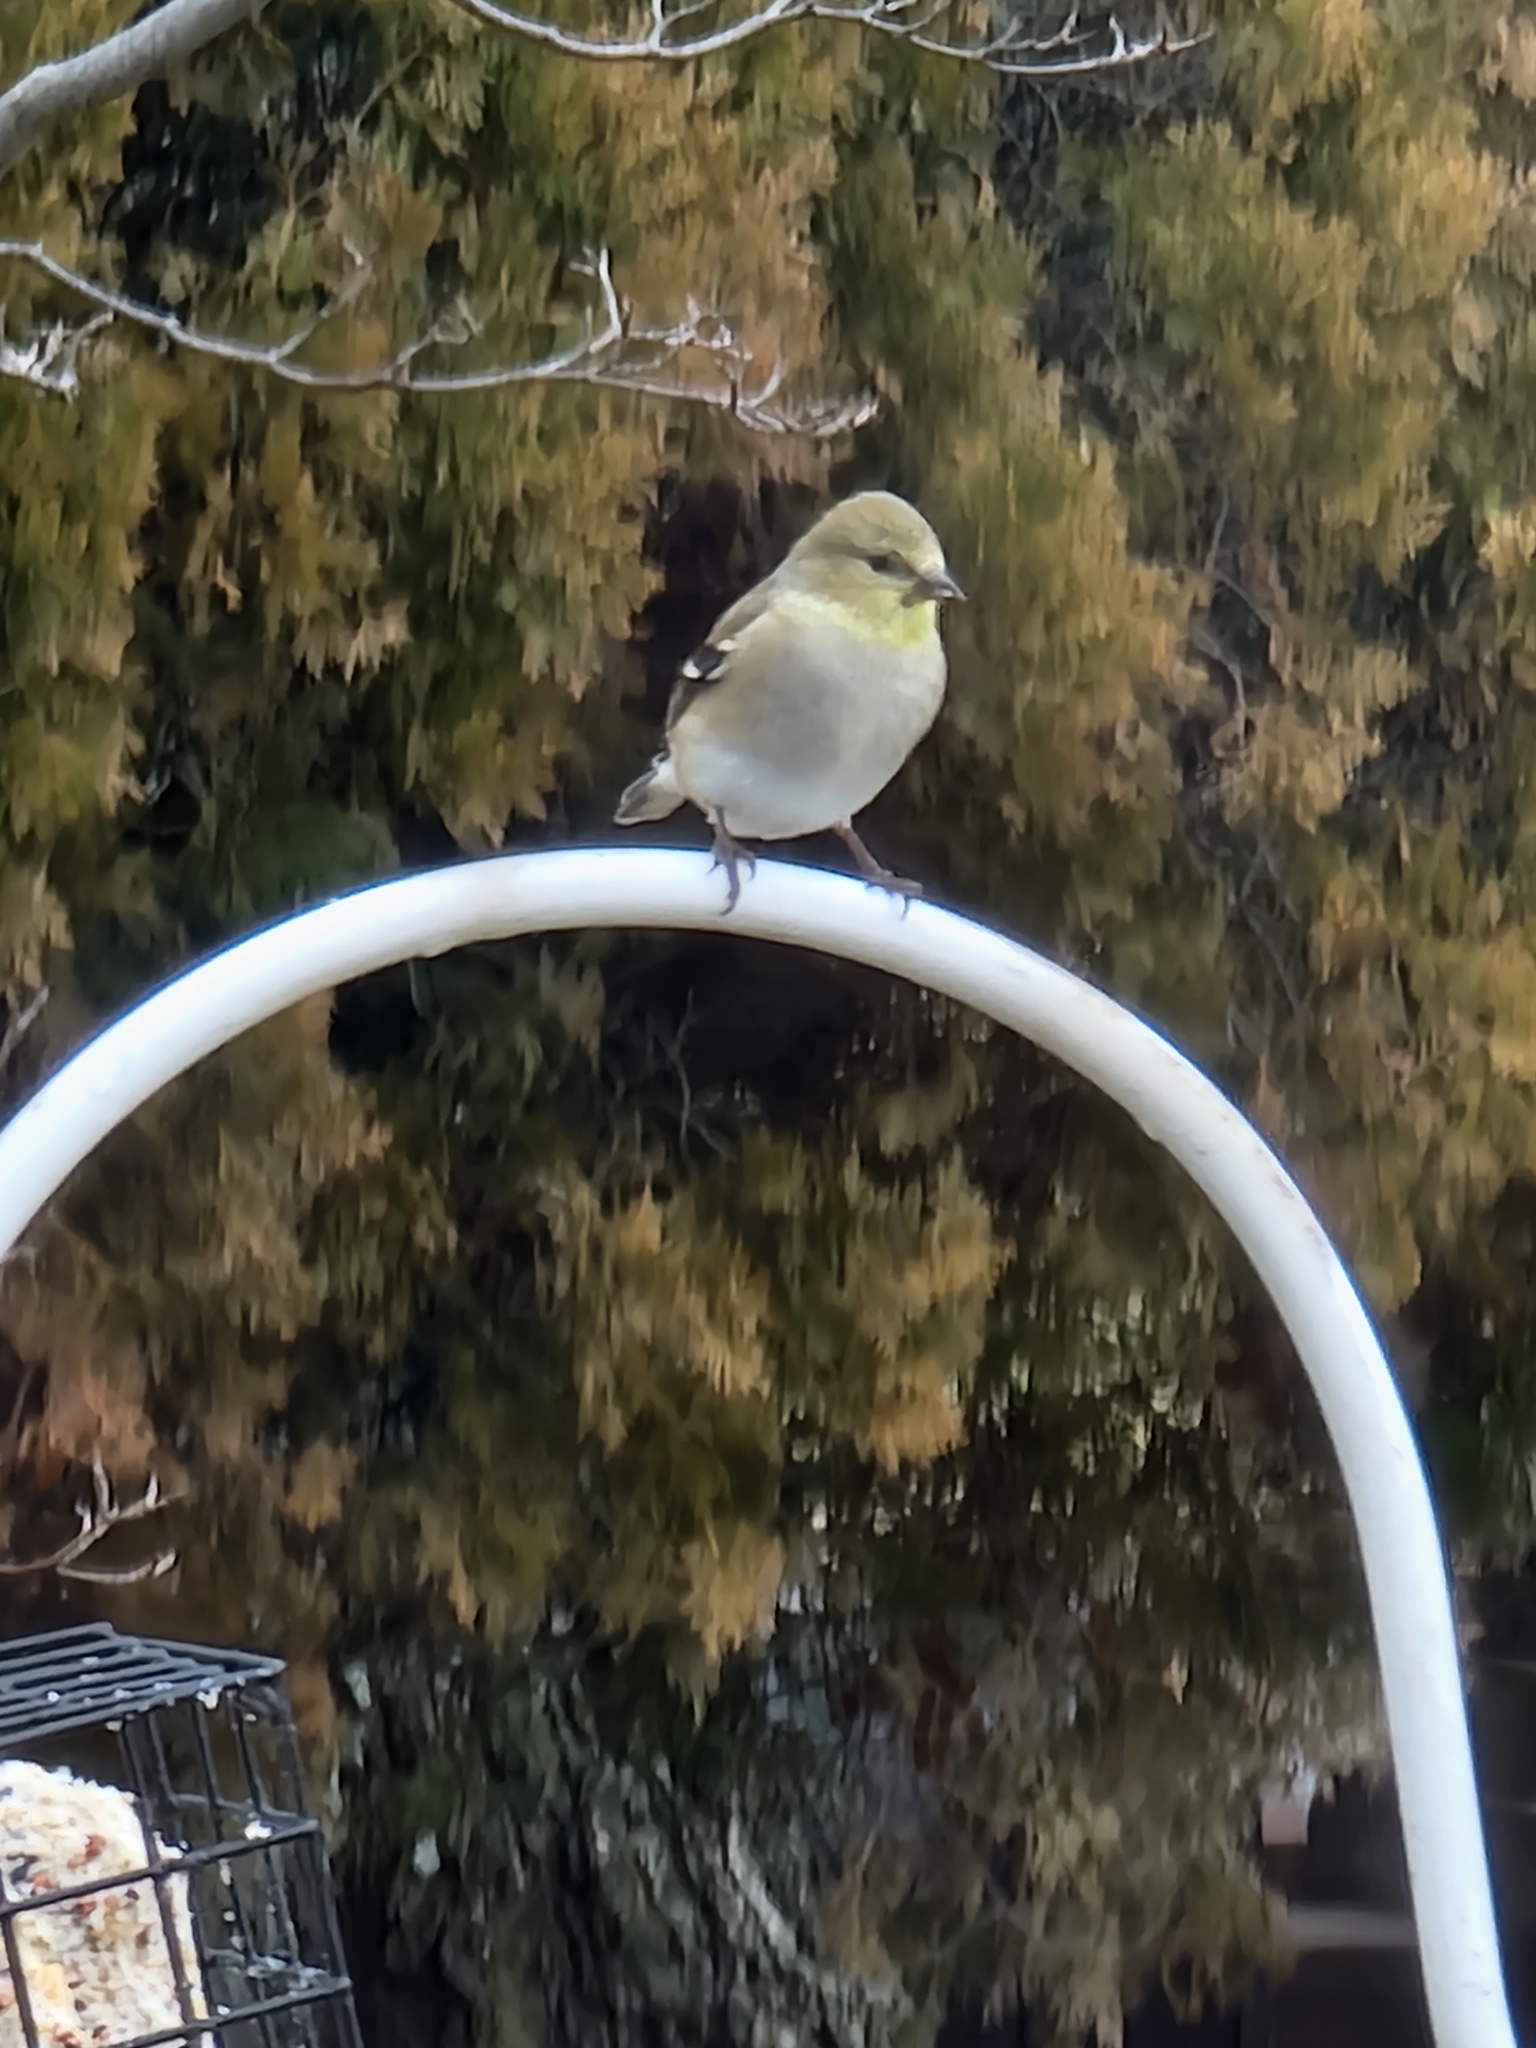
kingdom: Animalia
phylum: Chordata
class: Aves
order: Passeriformes
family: Fringillidae
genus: Spinus
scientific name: Spinus tristis
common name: American goldfinch
